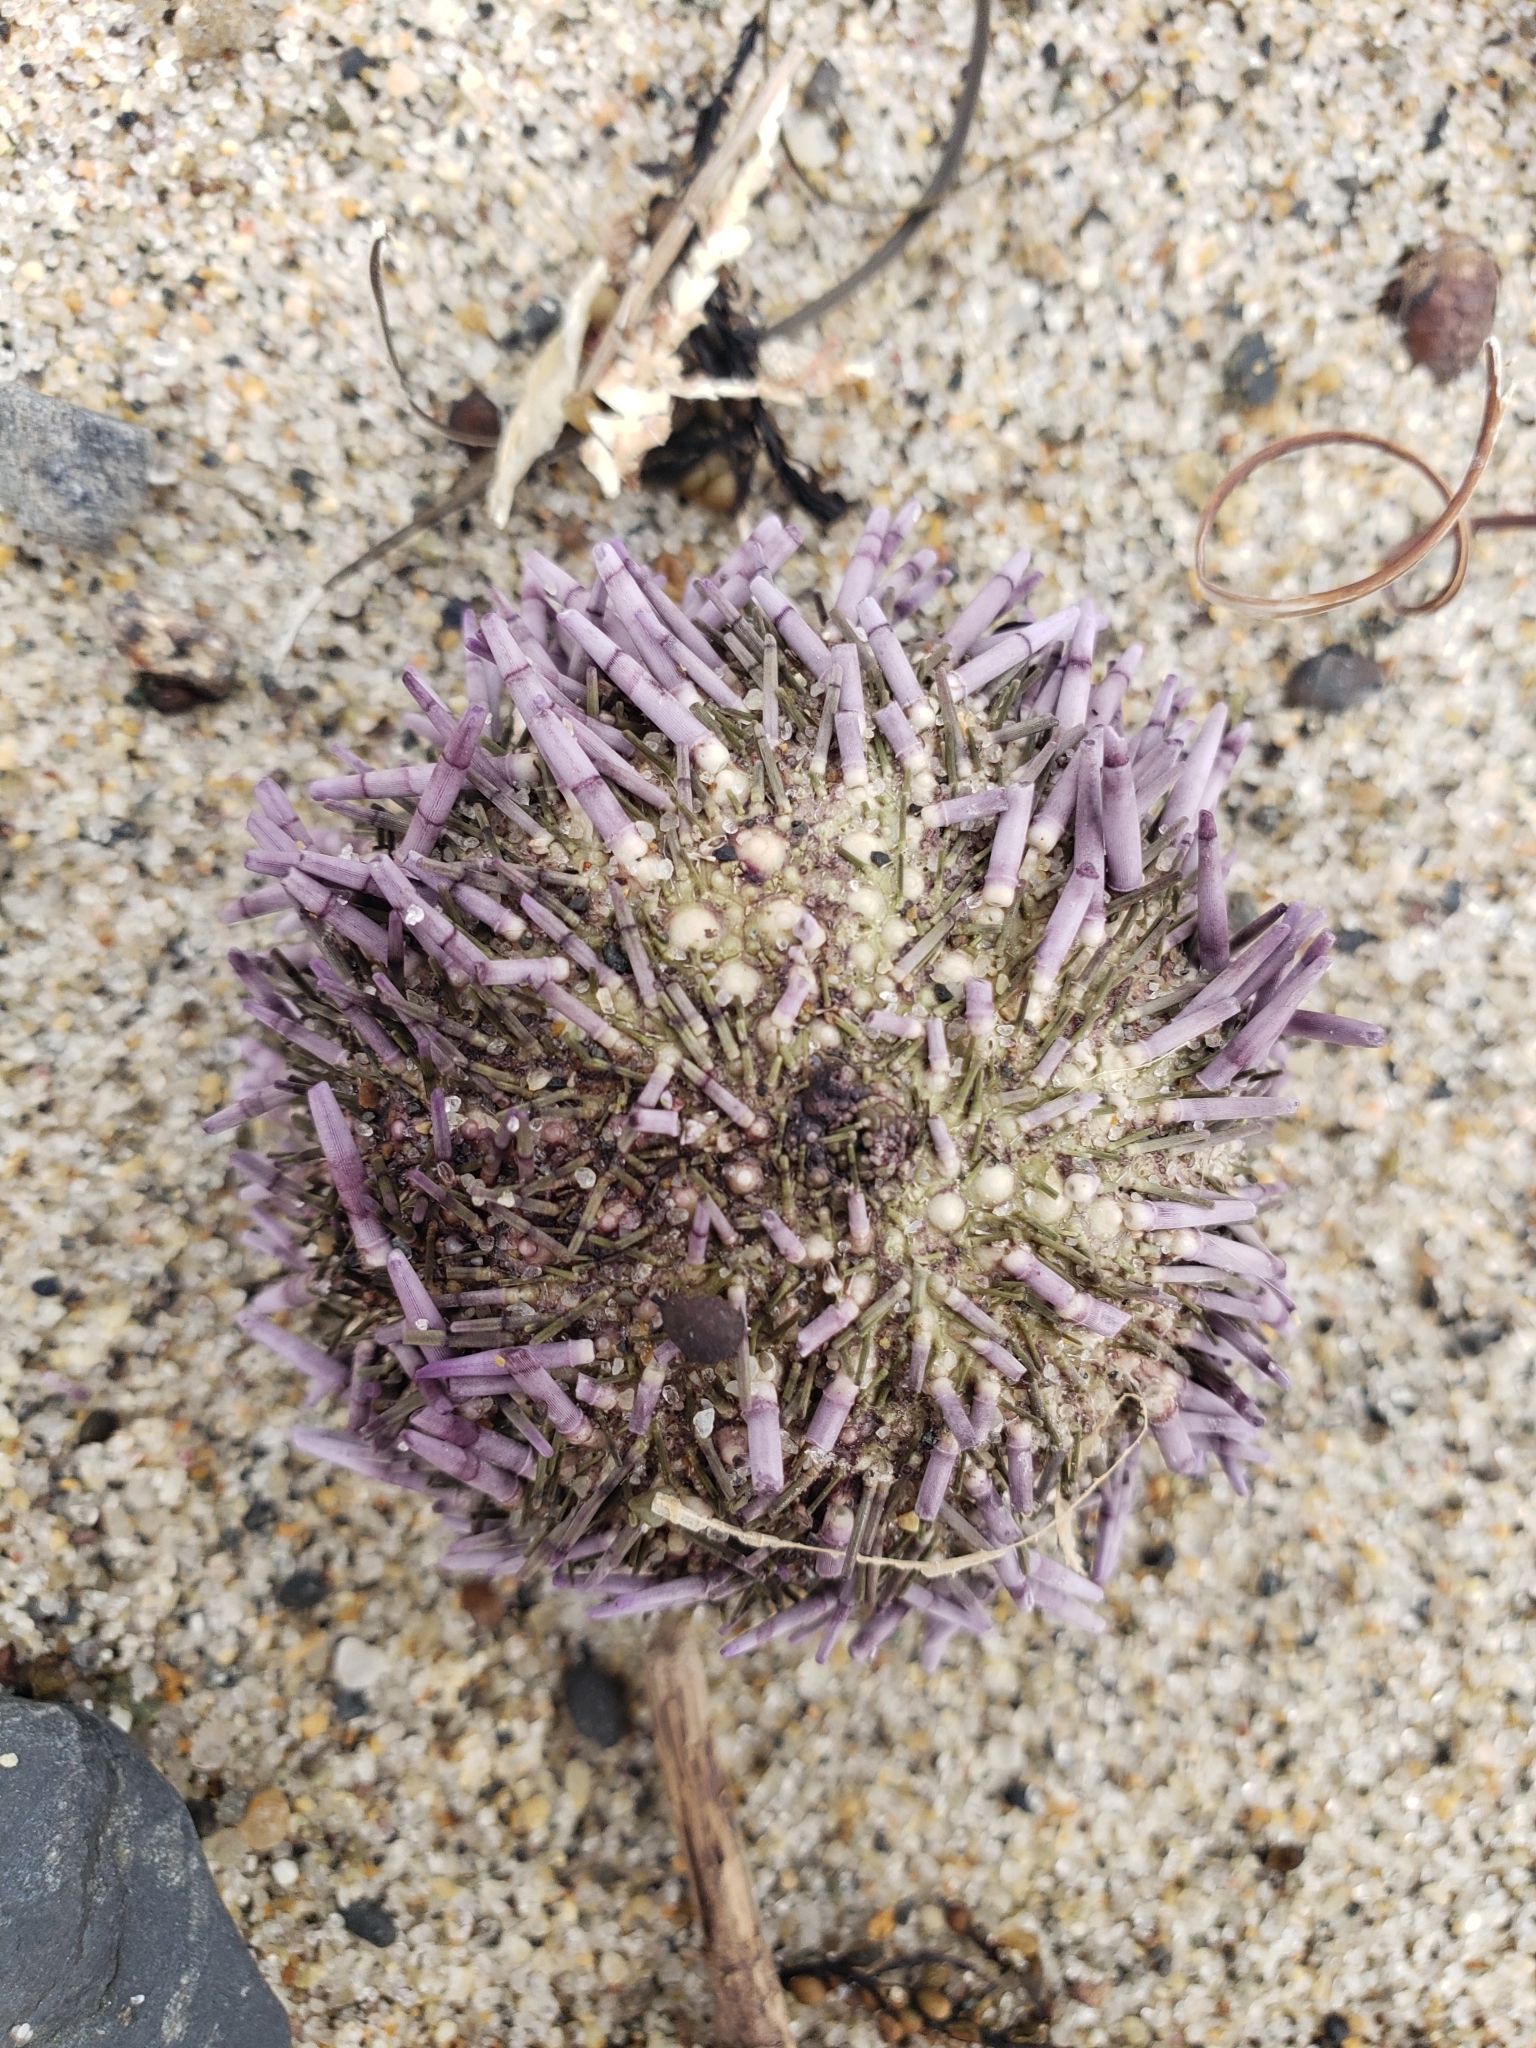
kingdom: Animalia
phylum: Echinodermata
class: Echinoidea
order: Camarodonta
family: Strongylocentrotidae
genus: Strongylocentrotus
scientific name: Strongylocentrotus purpuratus
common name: Purple sea urchin
